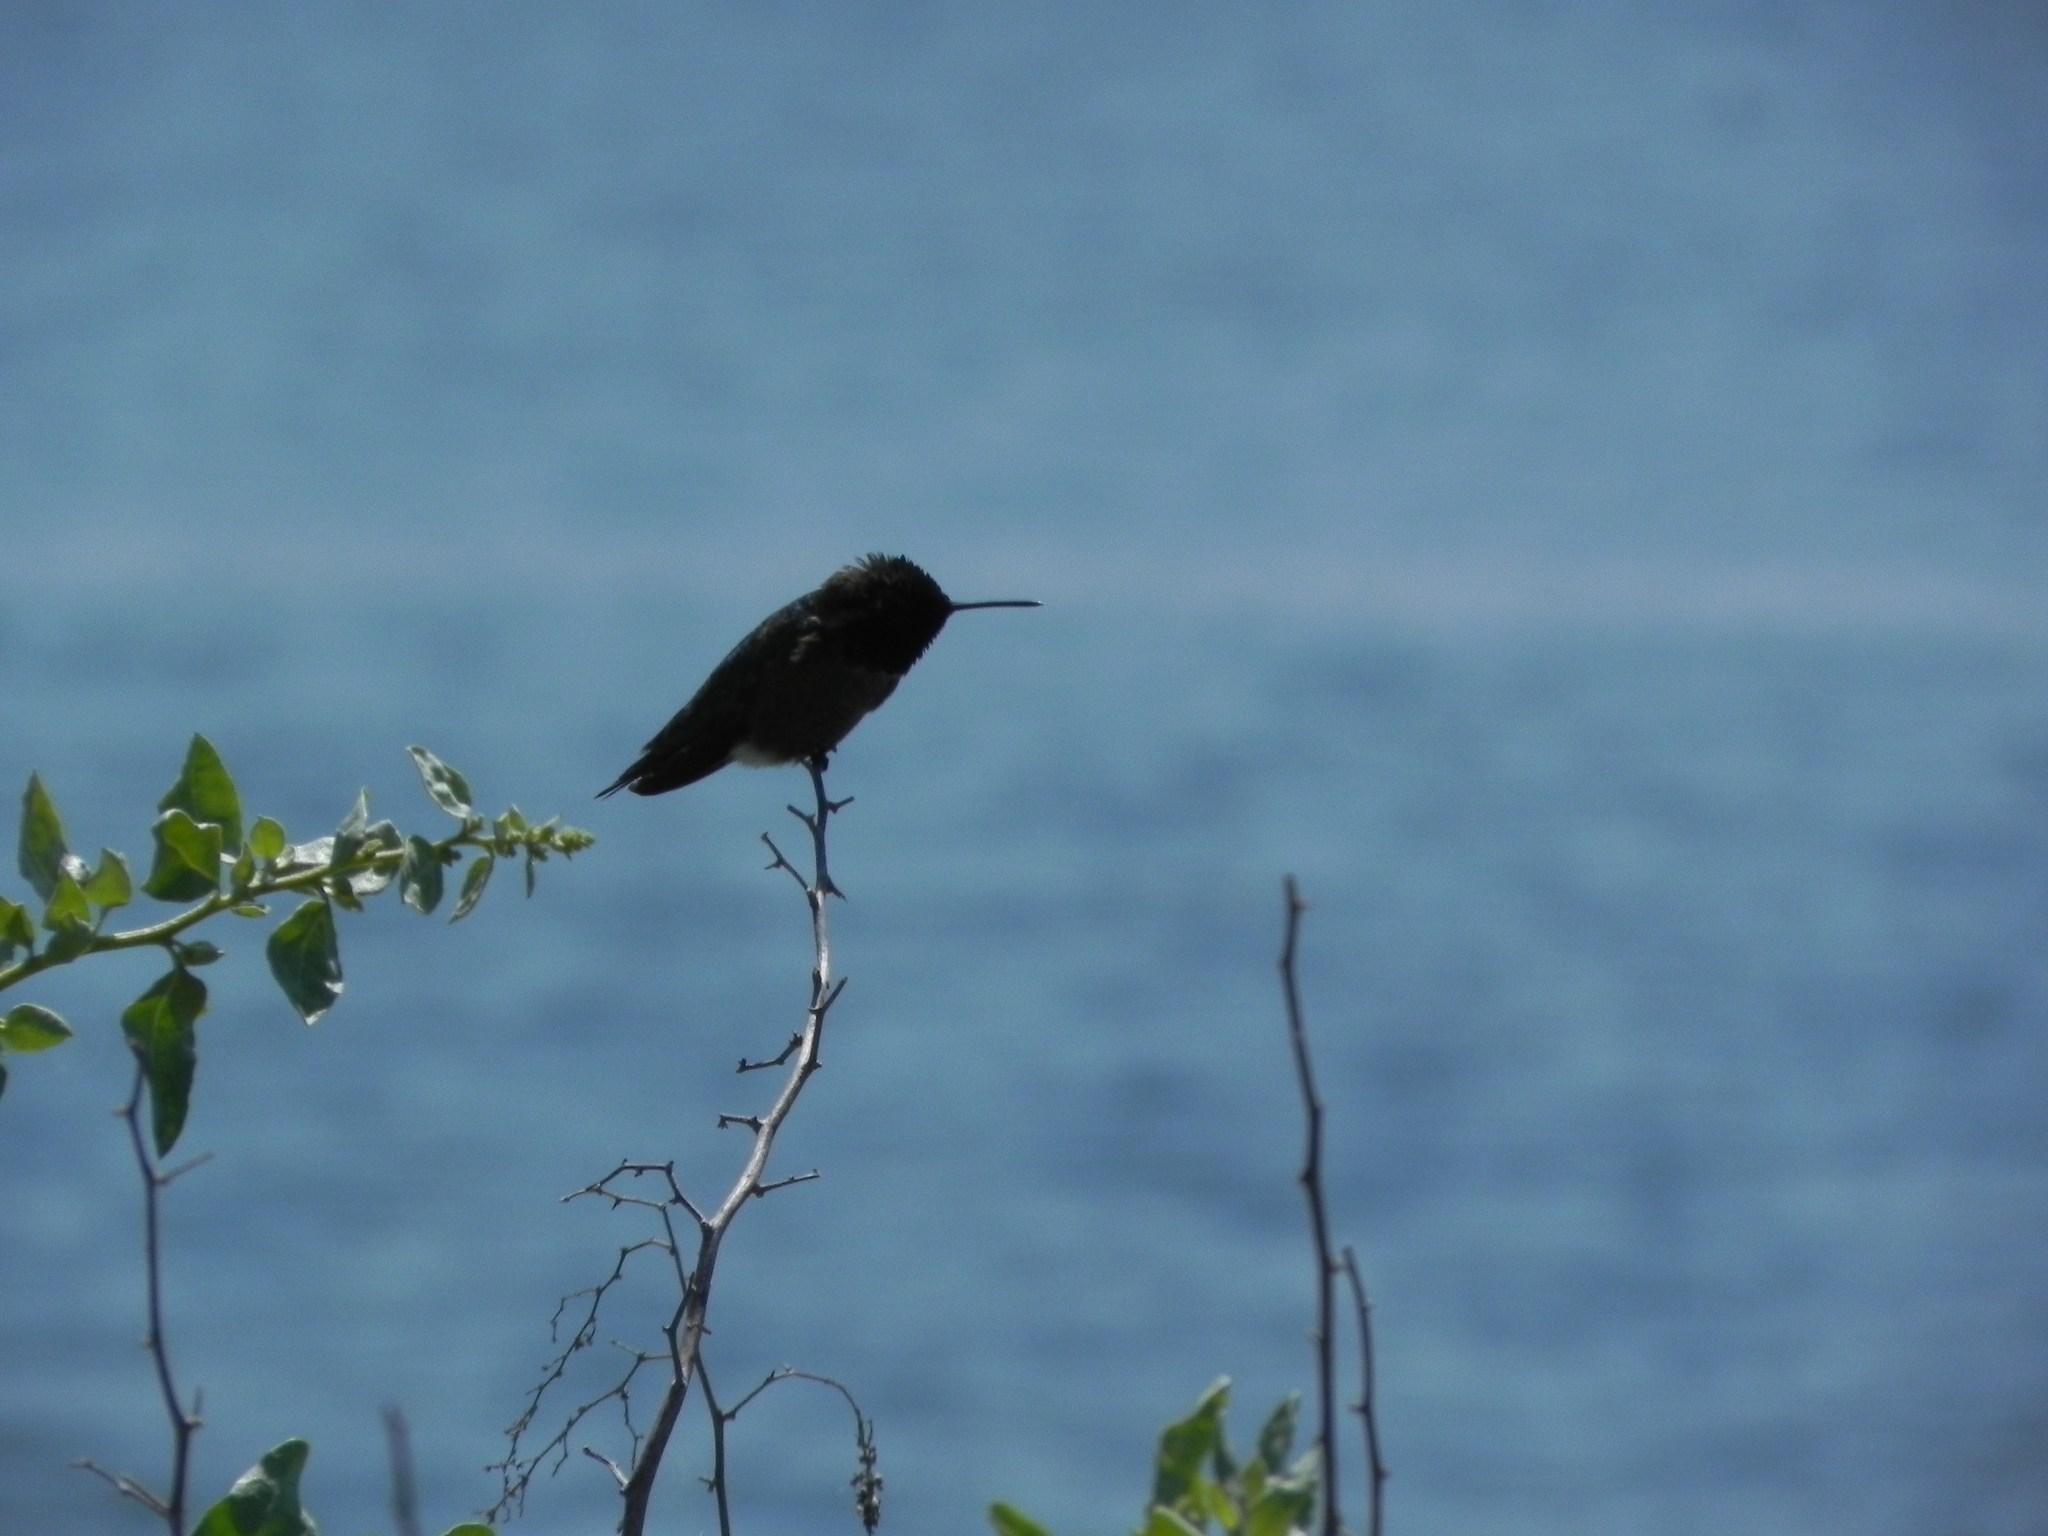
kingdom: Animalia
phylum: Chordata
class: Aves
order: Apodiformes
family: Trochilidae
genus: Calypte
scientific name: Calypte anna
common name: Anna's hummingbird
